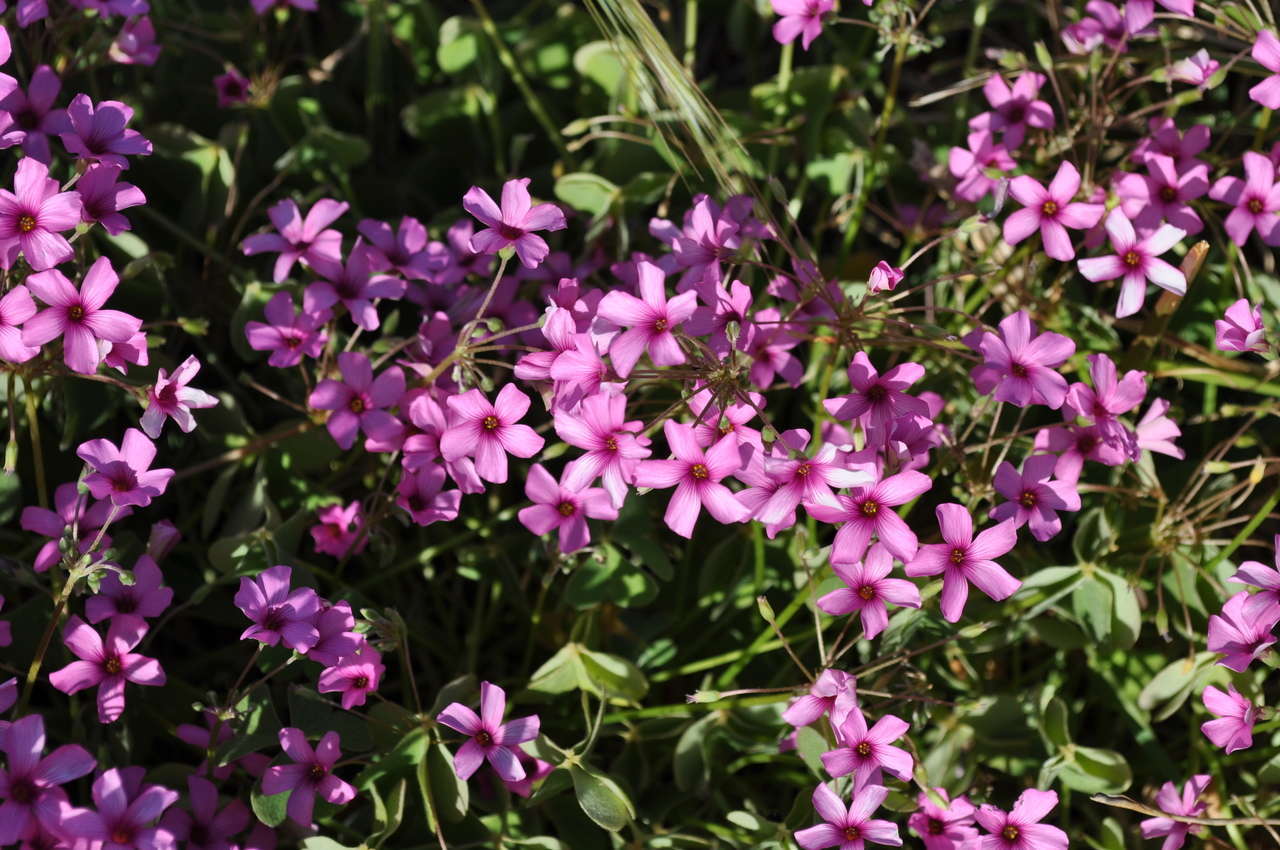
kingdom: Plantae
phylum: Tracheophyta
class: Magnoliopsida
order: Oxalidales
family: Oxalidaceae
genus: Oxalis
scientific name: Oxalis articulata
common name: Pink-sorrel
